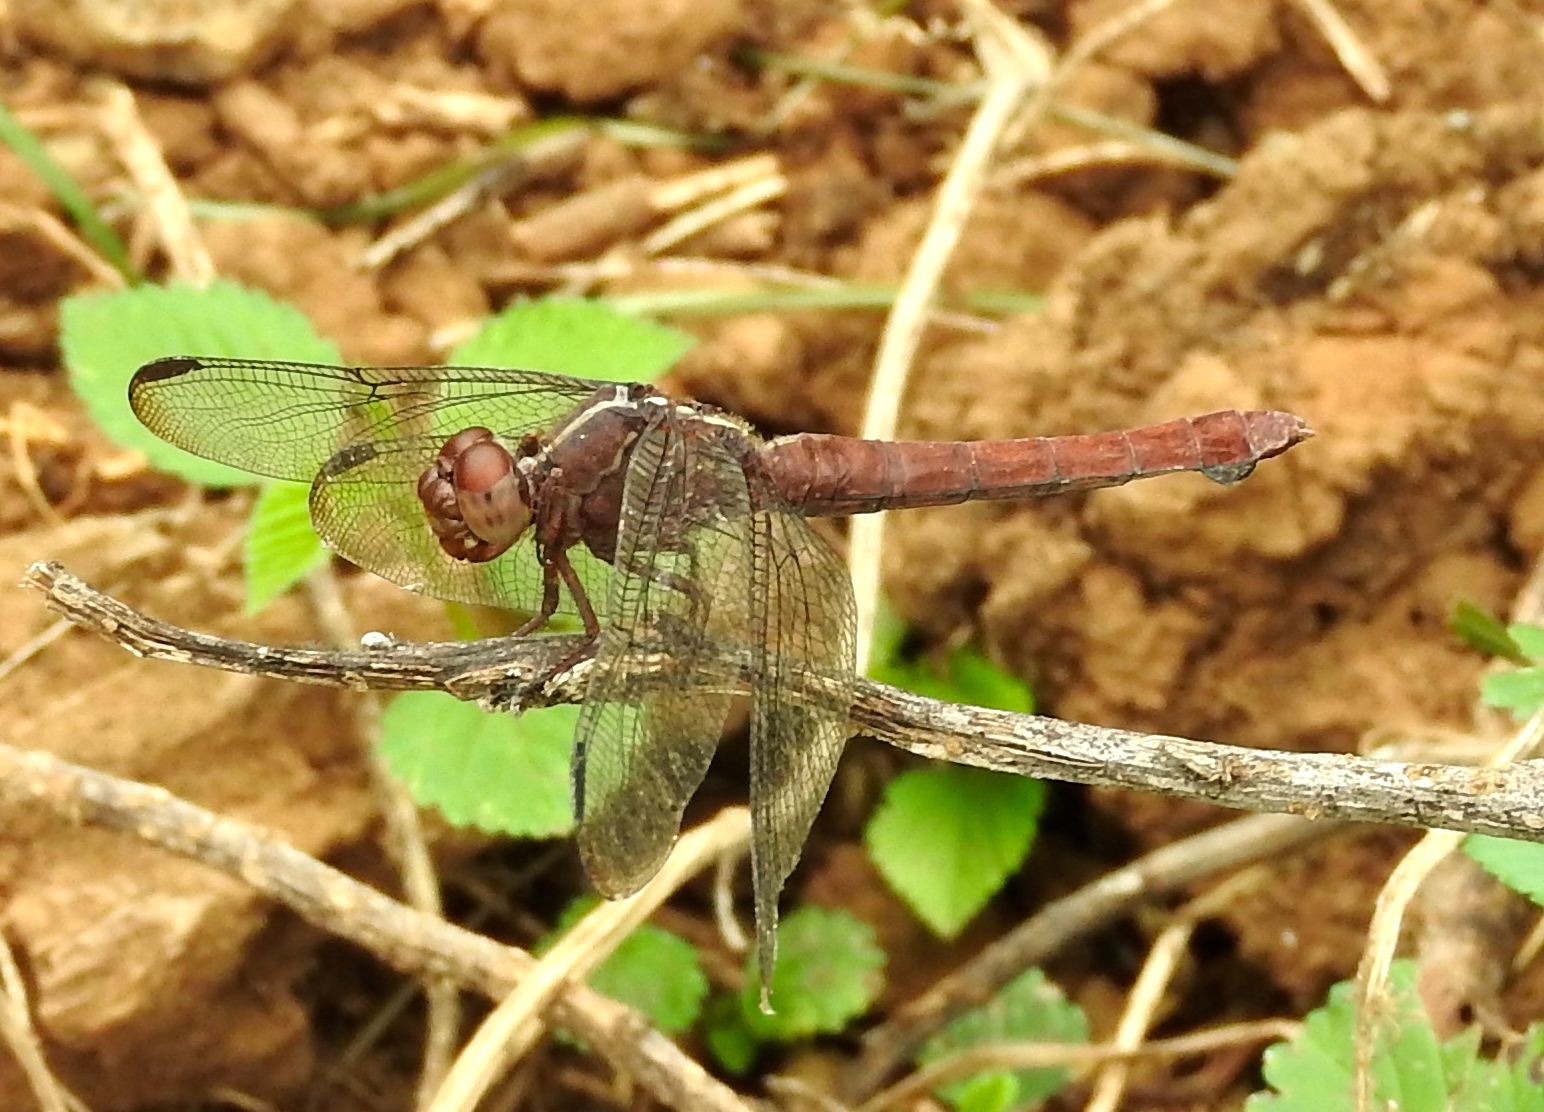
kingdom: Animalia
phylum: Arthropoda
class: Insecta
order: Odonata
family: Libellulidae
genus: Orthemis
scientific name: Orthemis
